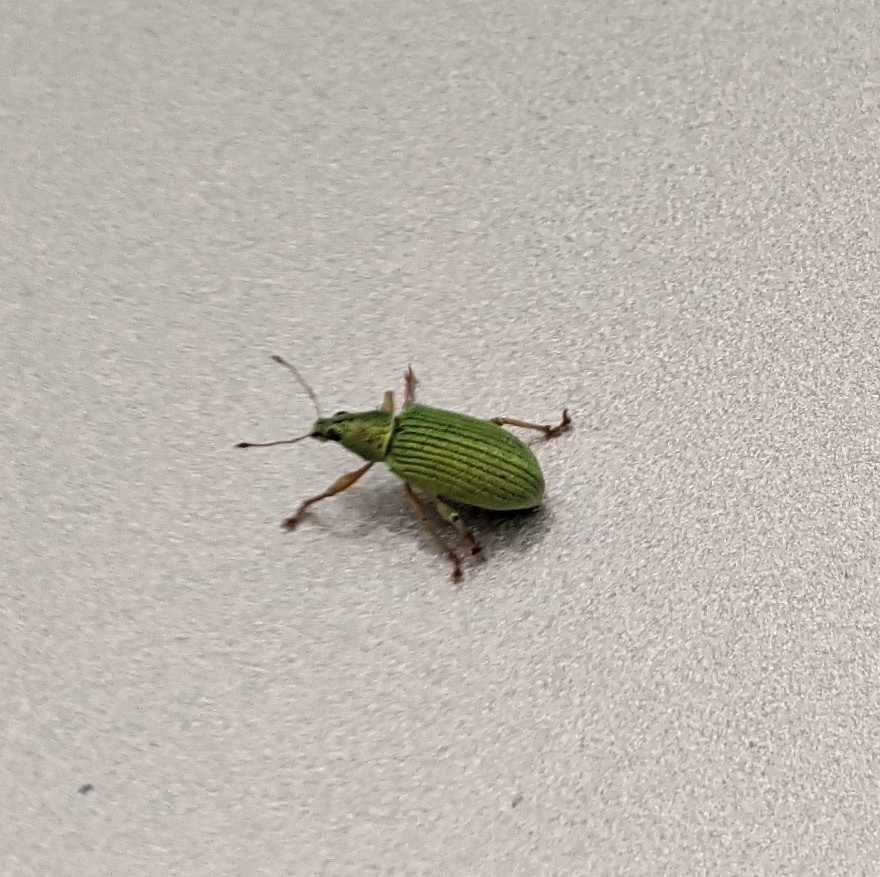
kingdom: Animalia
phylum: Arthropoda
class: Insecta
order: Coleoptera
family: Curculionidae
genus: Polydrusus
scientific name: Polydrusus formosus
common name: Weevil
